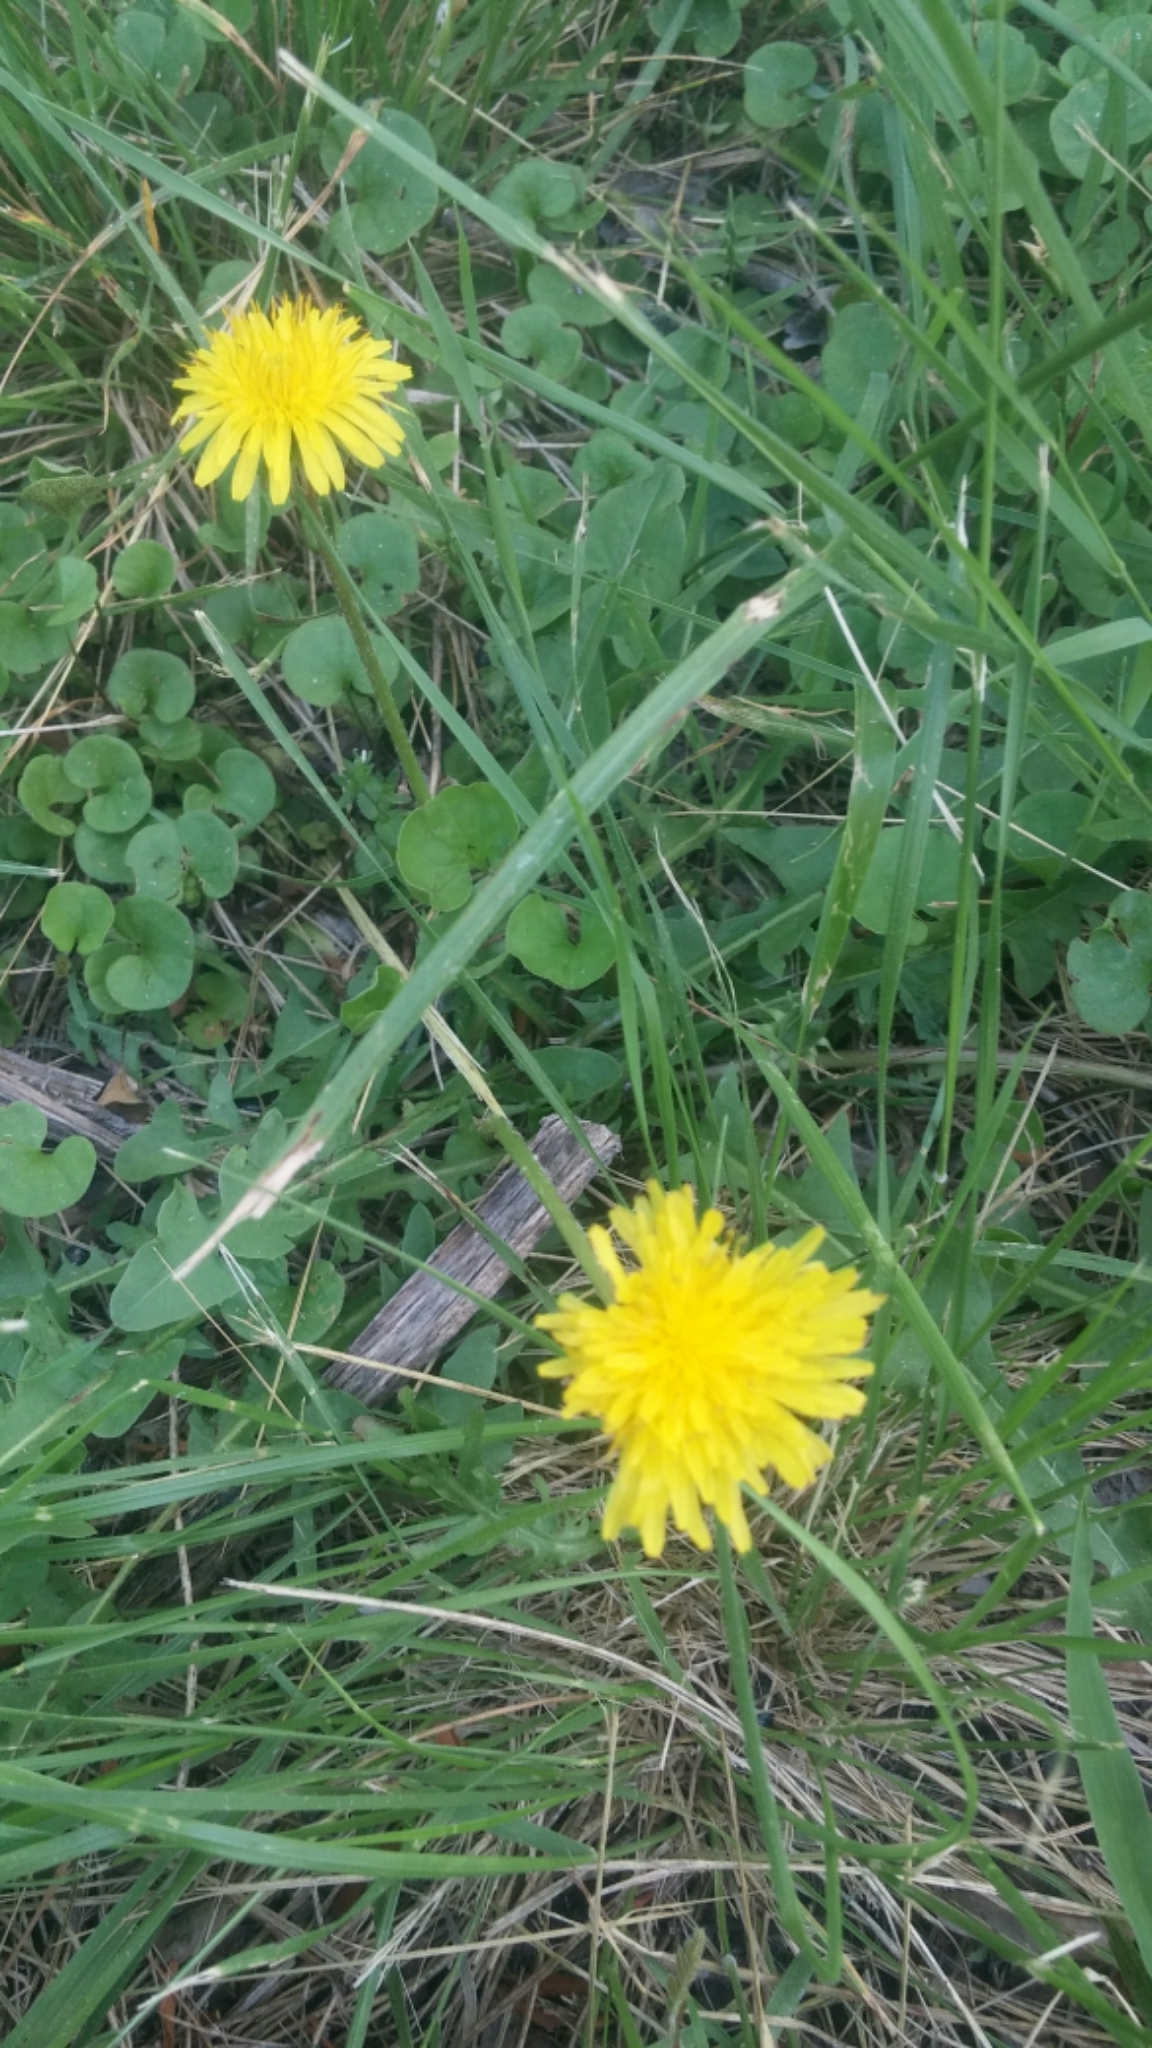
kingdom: Plantae
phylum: Tracheophyta
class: Magnoliopsida
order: Asterales
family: Asteraceae
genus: Taraxacum
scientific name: Taraxacum officinale
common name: Common dandelion
